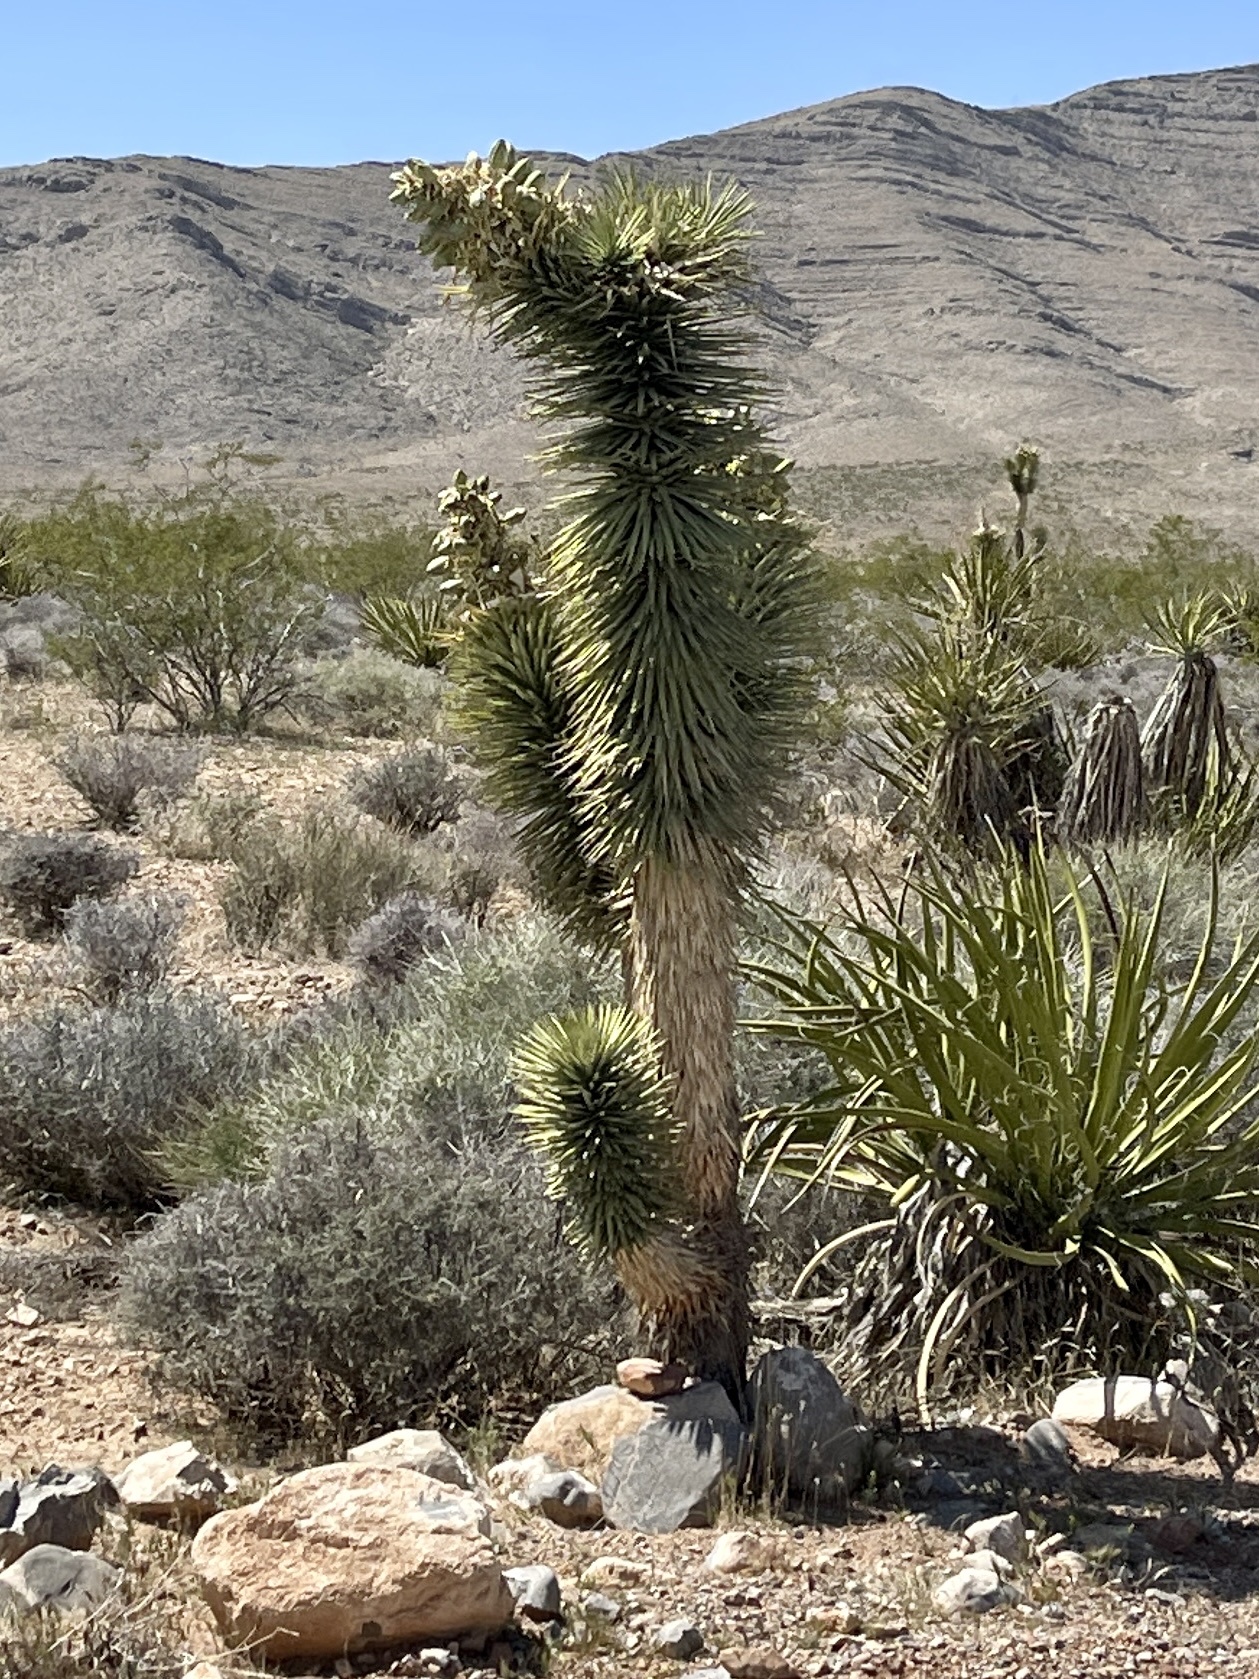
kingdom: Plantae
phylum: Tracheophyta
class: Liliopsida
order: Asparagales
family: Asparagaceae
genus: Yucca
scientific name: Yucca brevifolia
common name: Joshua tree
